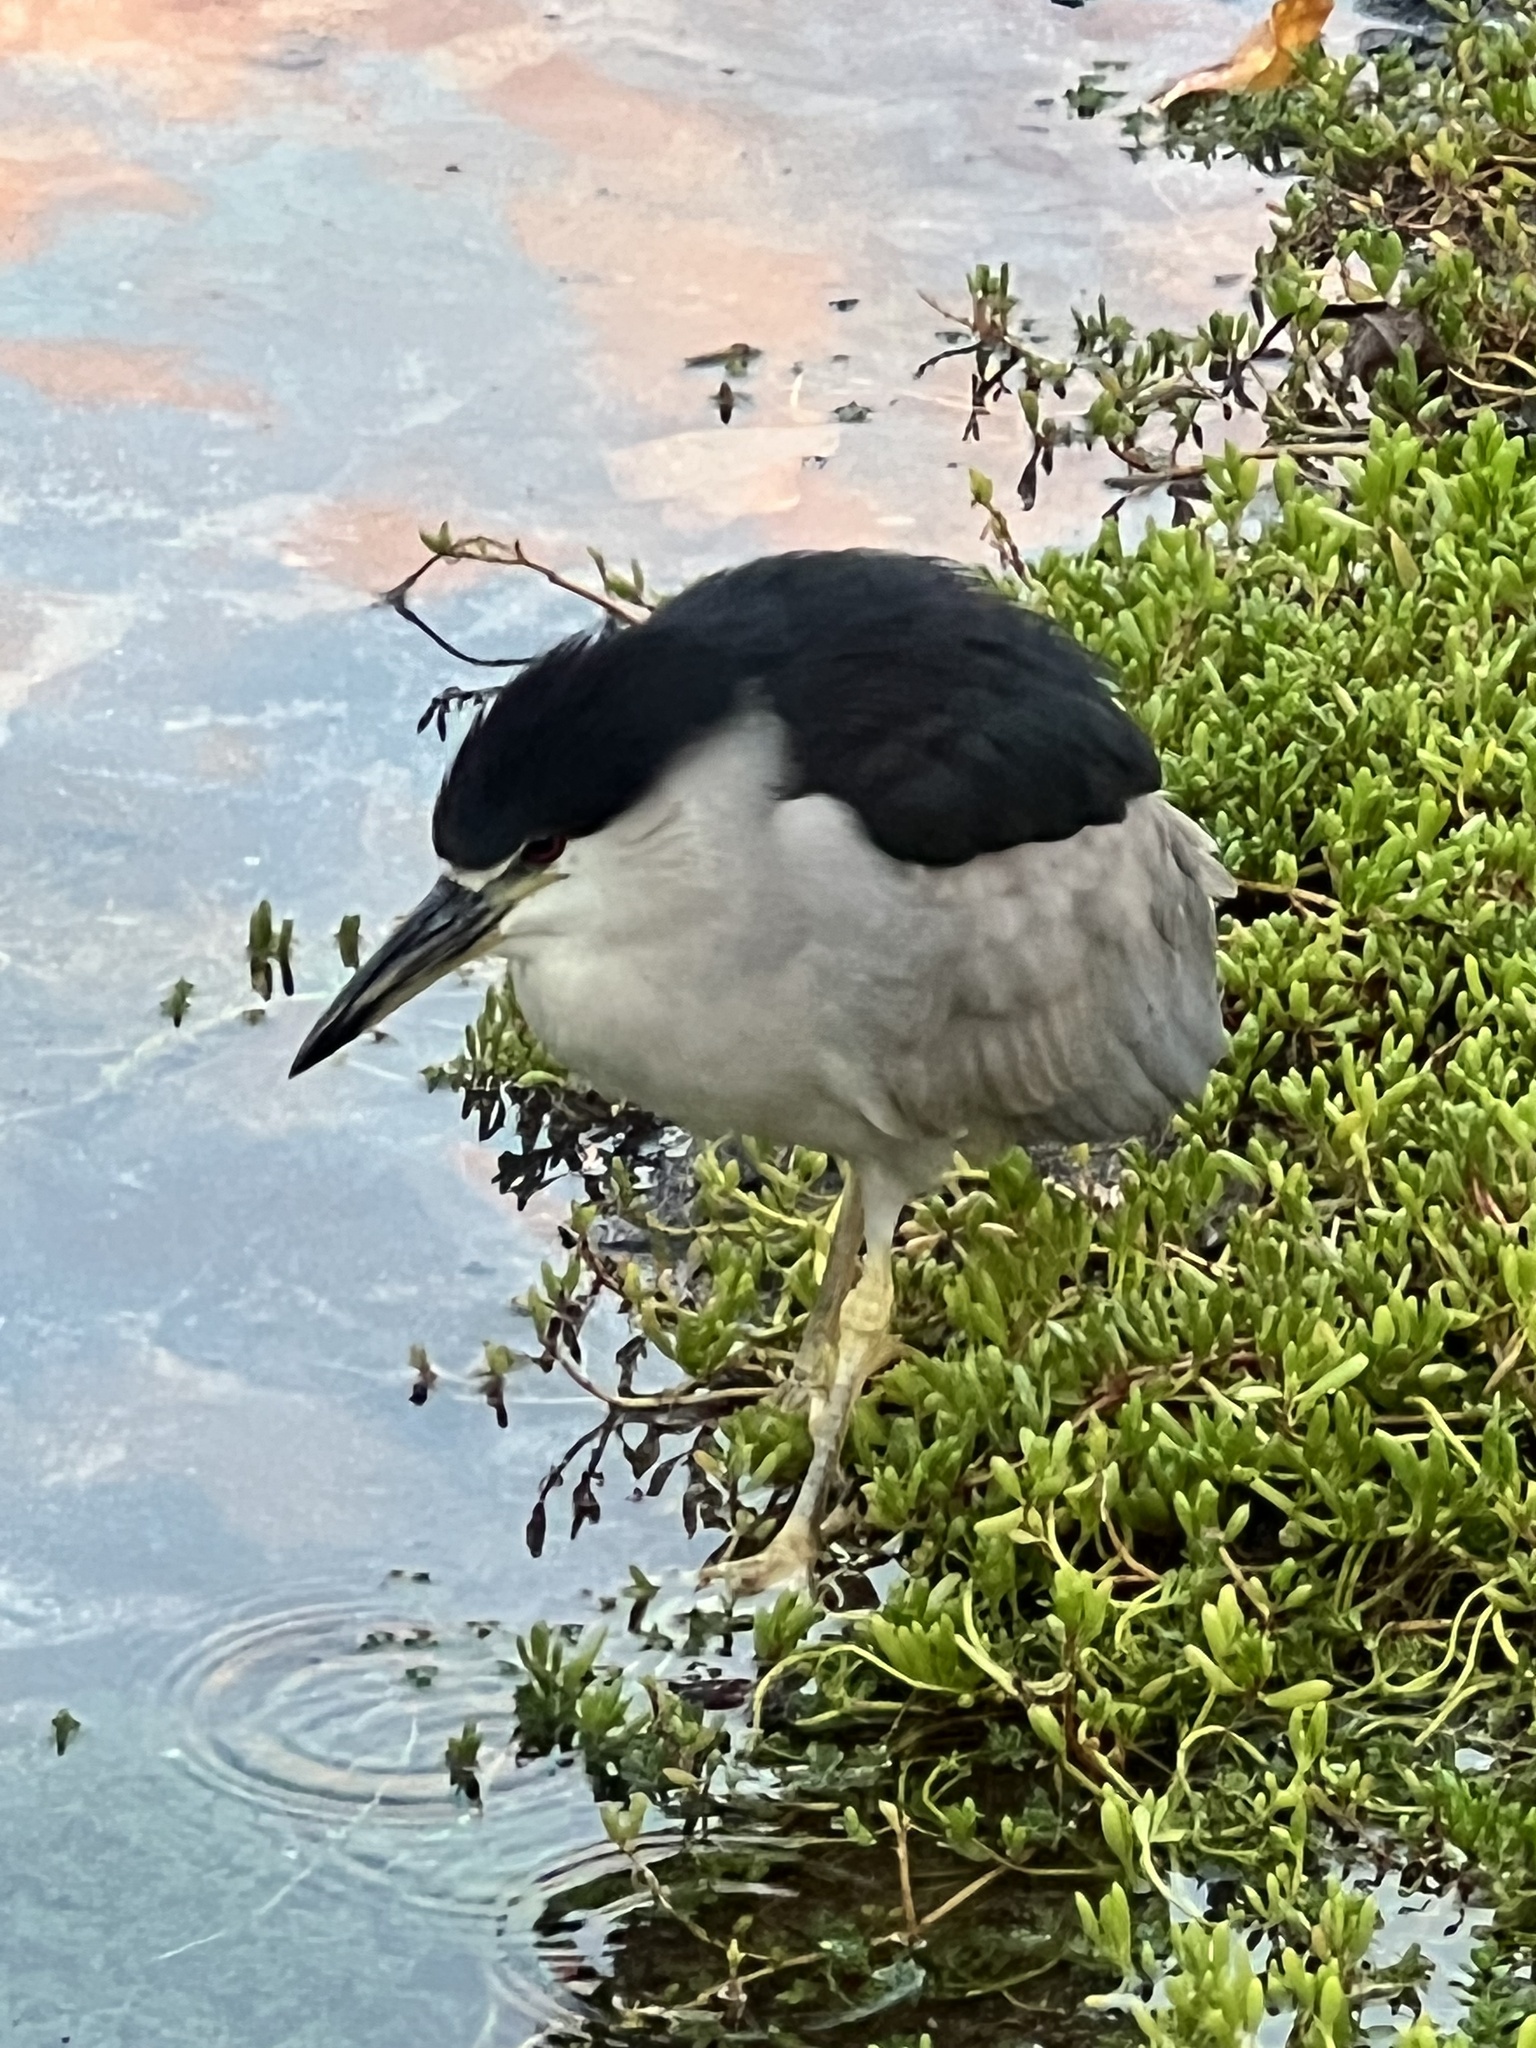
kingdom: Animalia
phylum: Chordata
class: Aves
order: Pelecaniformes
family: Ardeidae
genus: Nycticorax
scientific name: Nycticorax nycticorax
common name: Black-crowned night heron
